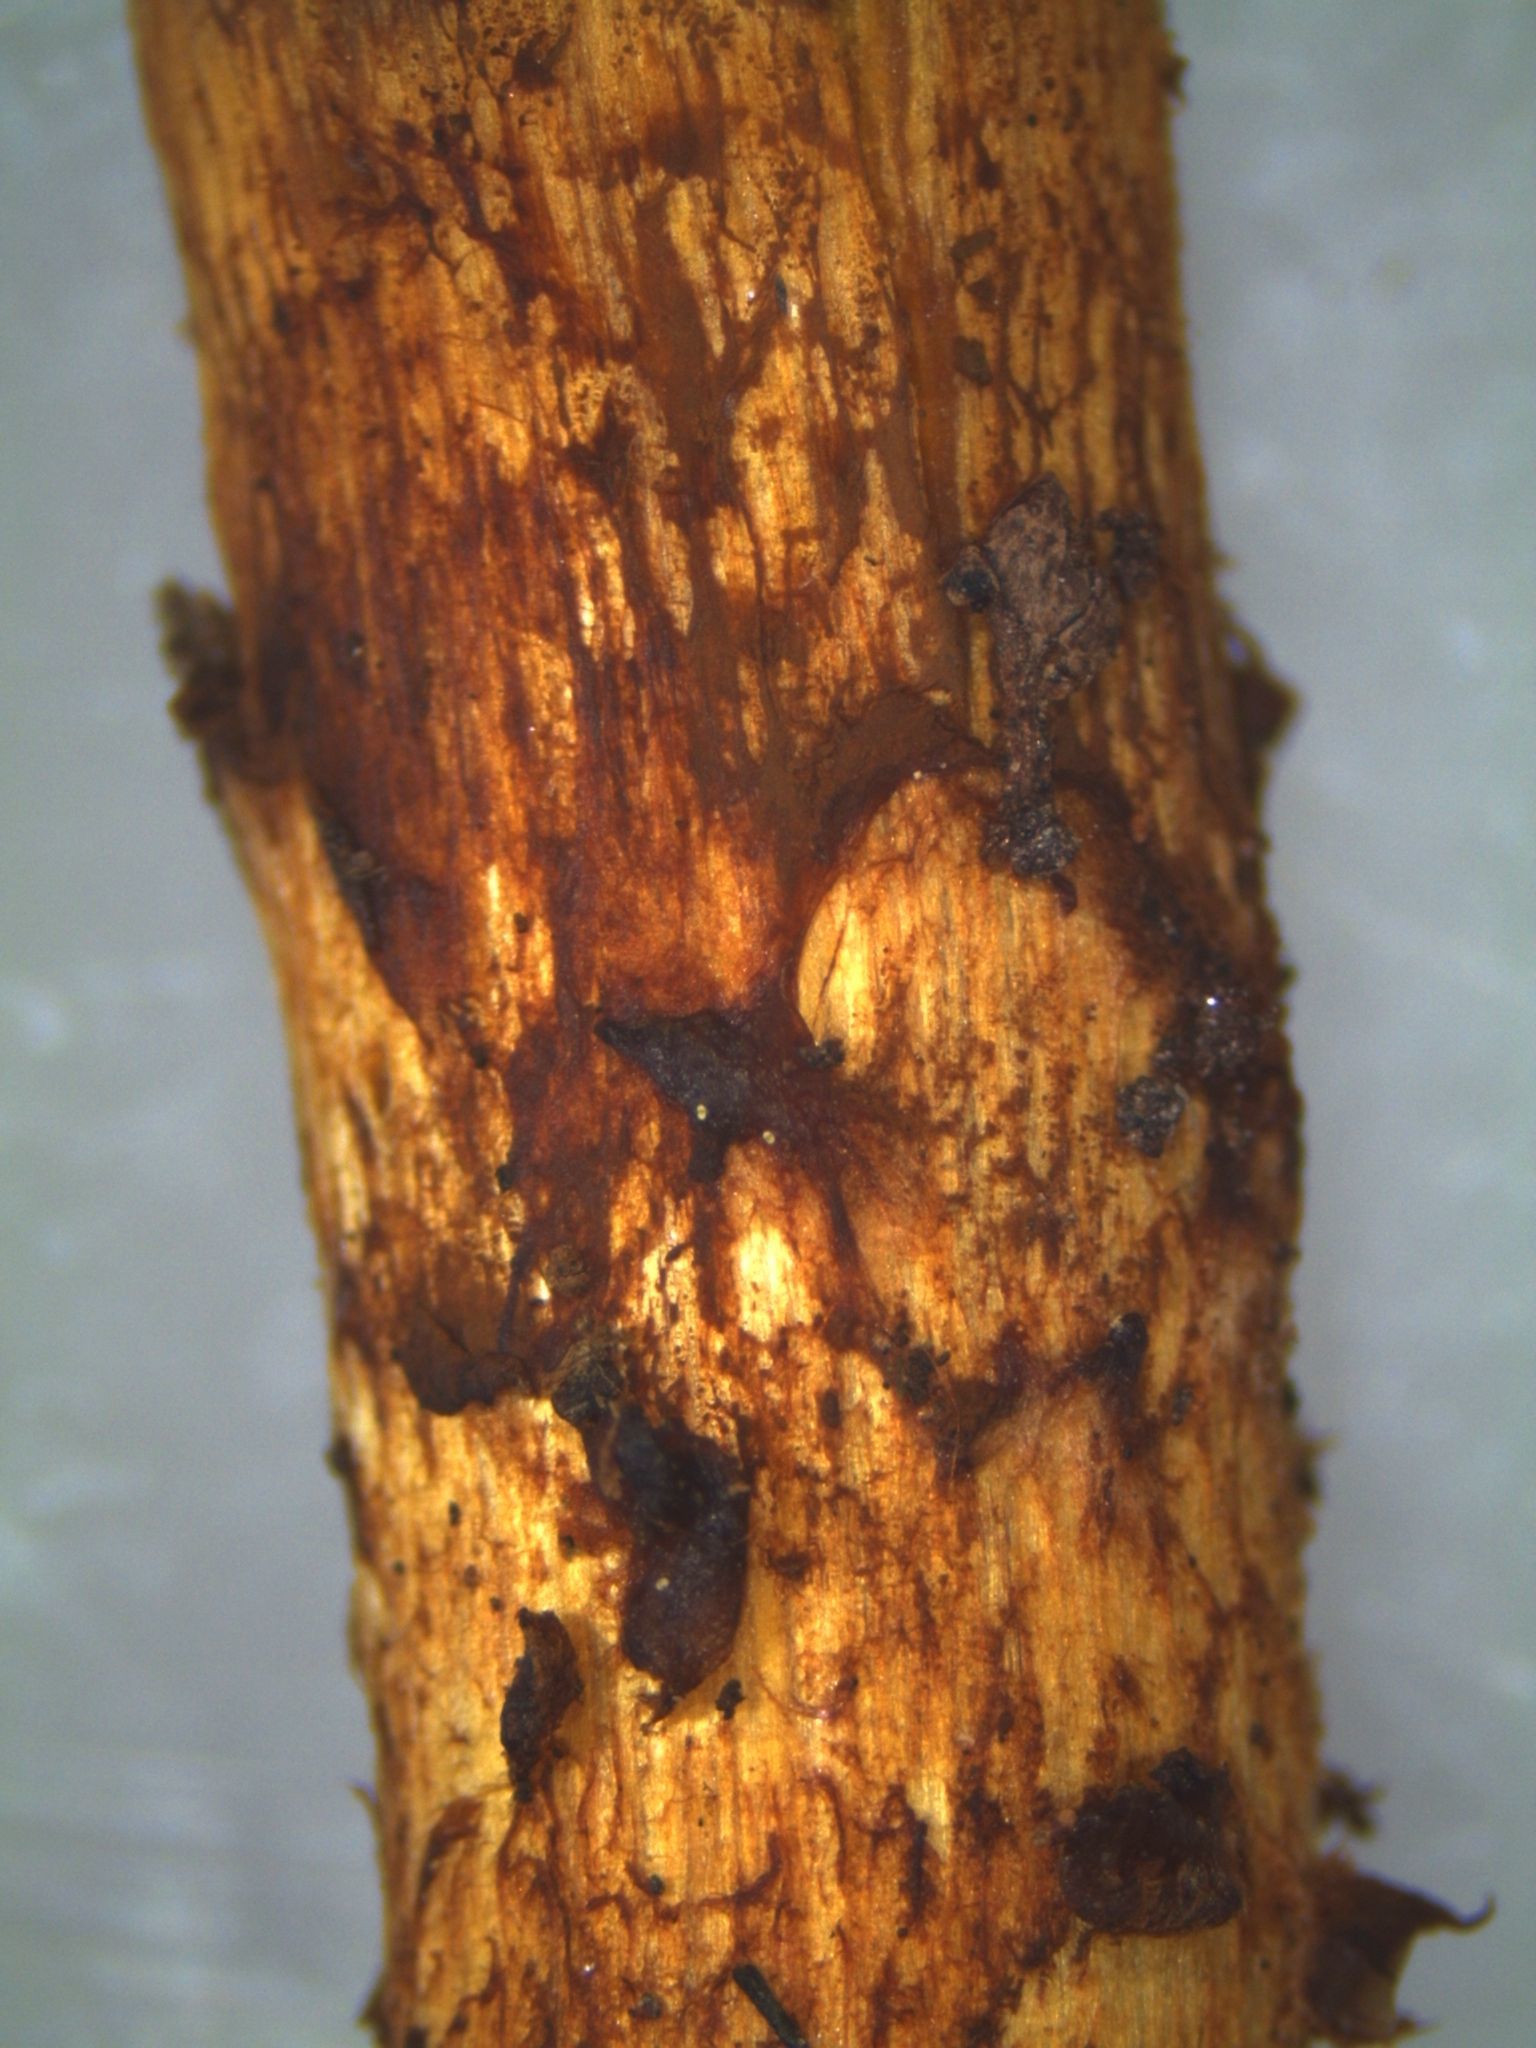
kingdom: Fungi
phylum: Basidiomycota
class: Agaricomycetes
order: Agaricales
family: Strophariaceae
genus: Pholiota
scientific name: Pholiota glutinosa
